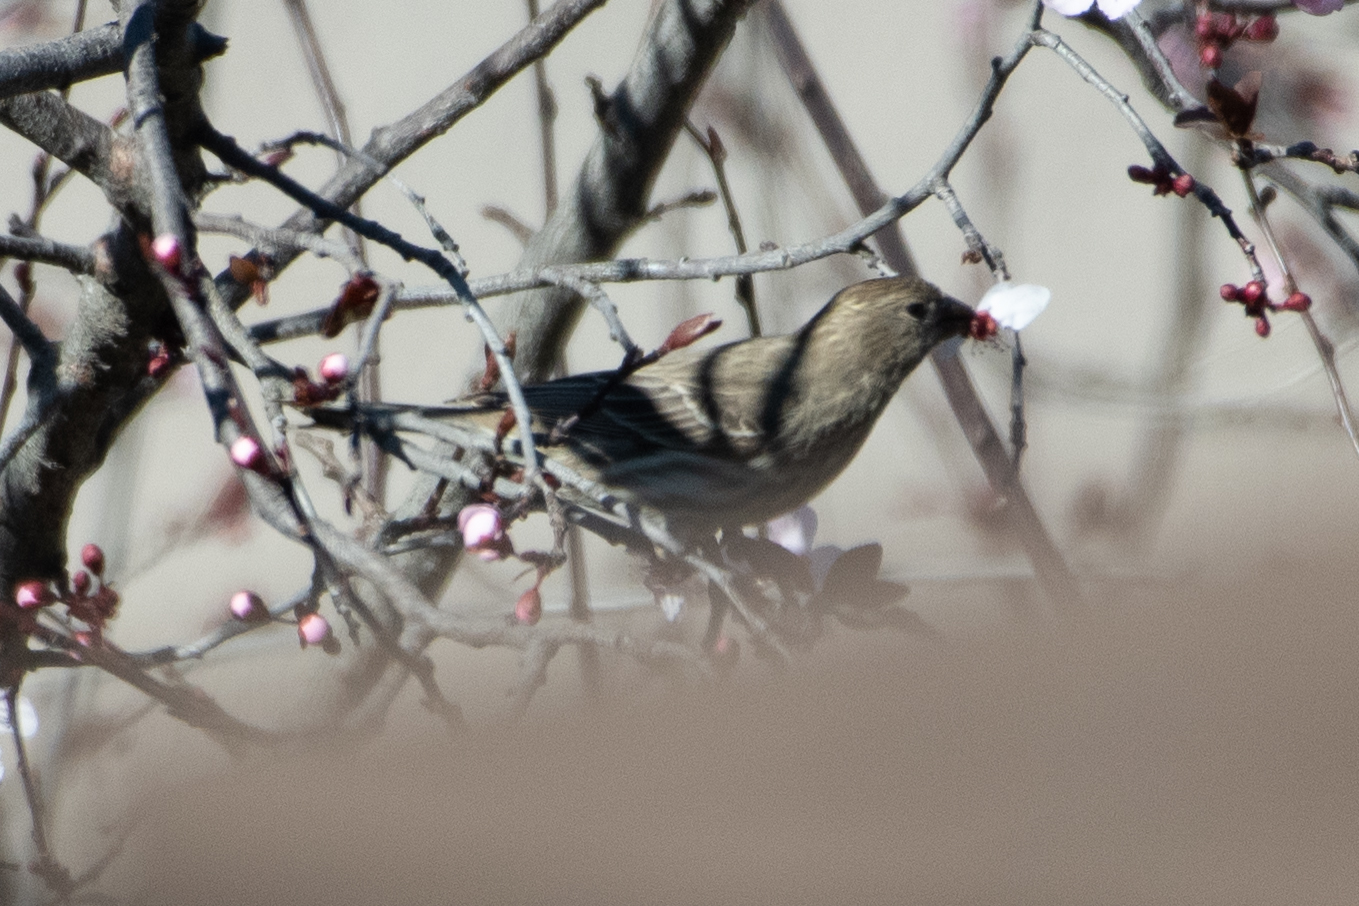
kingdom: Animalia
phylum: Chordata
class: Aves
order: Passeriformes
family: Fringillidae
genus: Haemorhous
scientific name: Haemorhous mexicanus
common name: House finch
